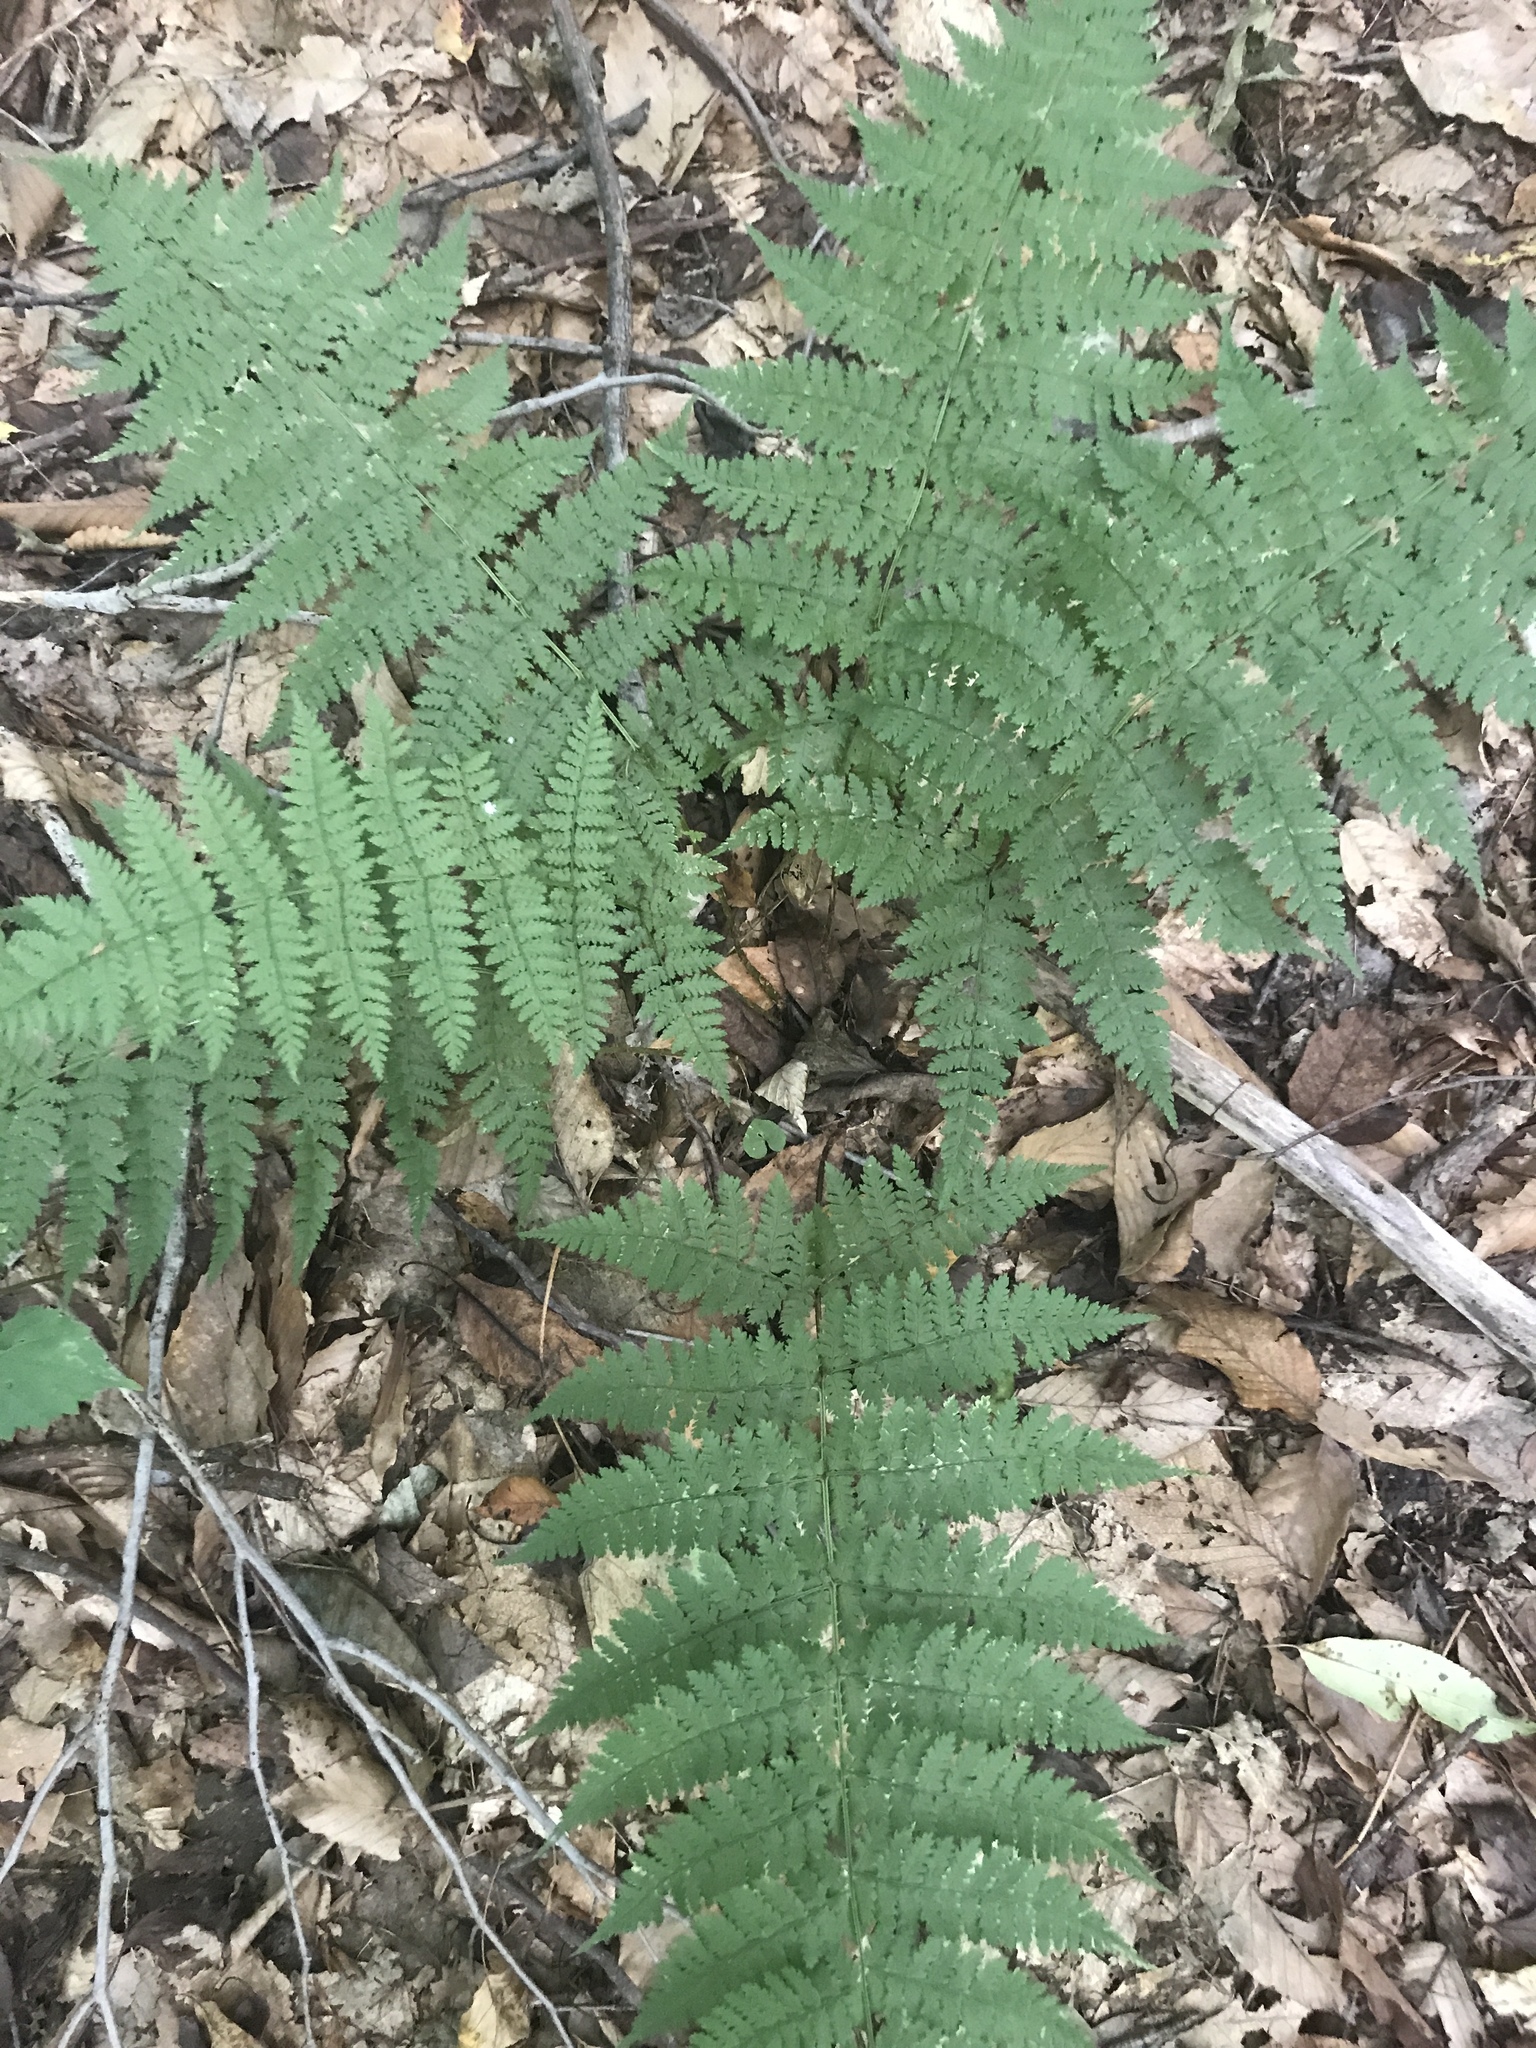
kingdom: Plantae
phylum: Tracheophyta
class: Polypodiopsida
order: Polypodiales
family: Dryopteridaceae
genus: Dryopteris
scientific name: Dryopteris intermedia
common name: Evergreen wood fern
